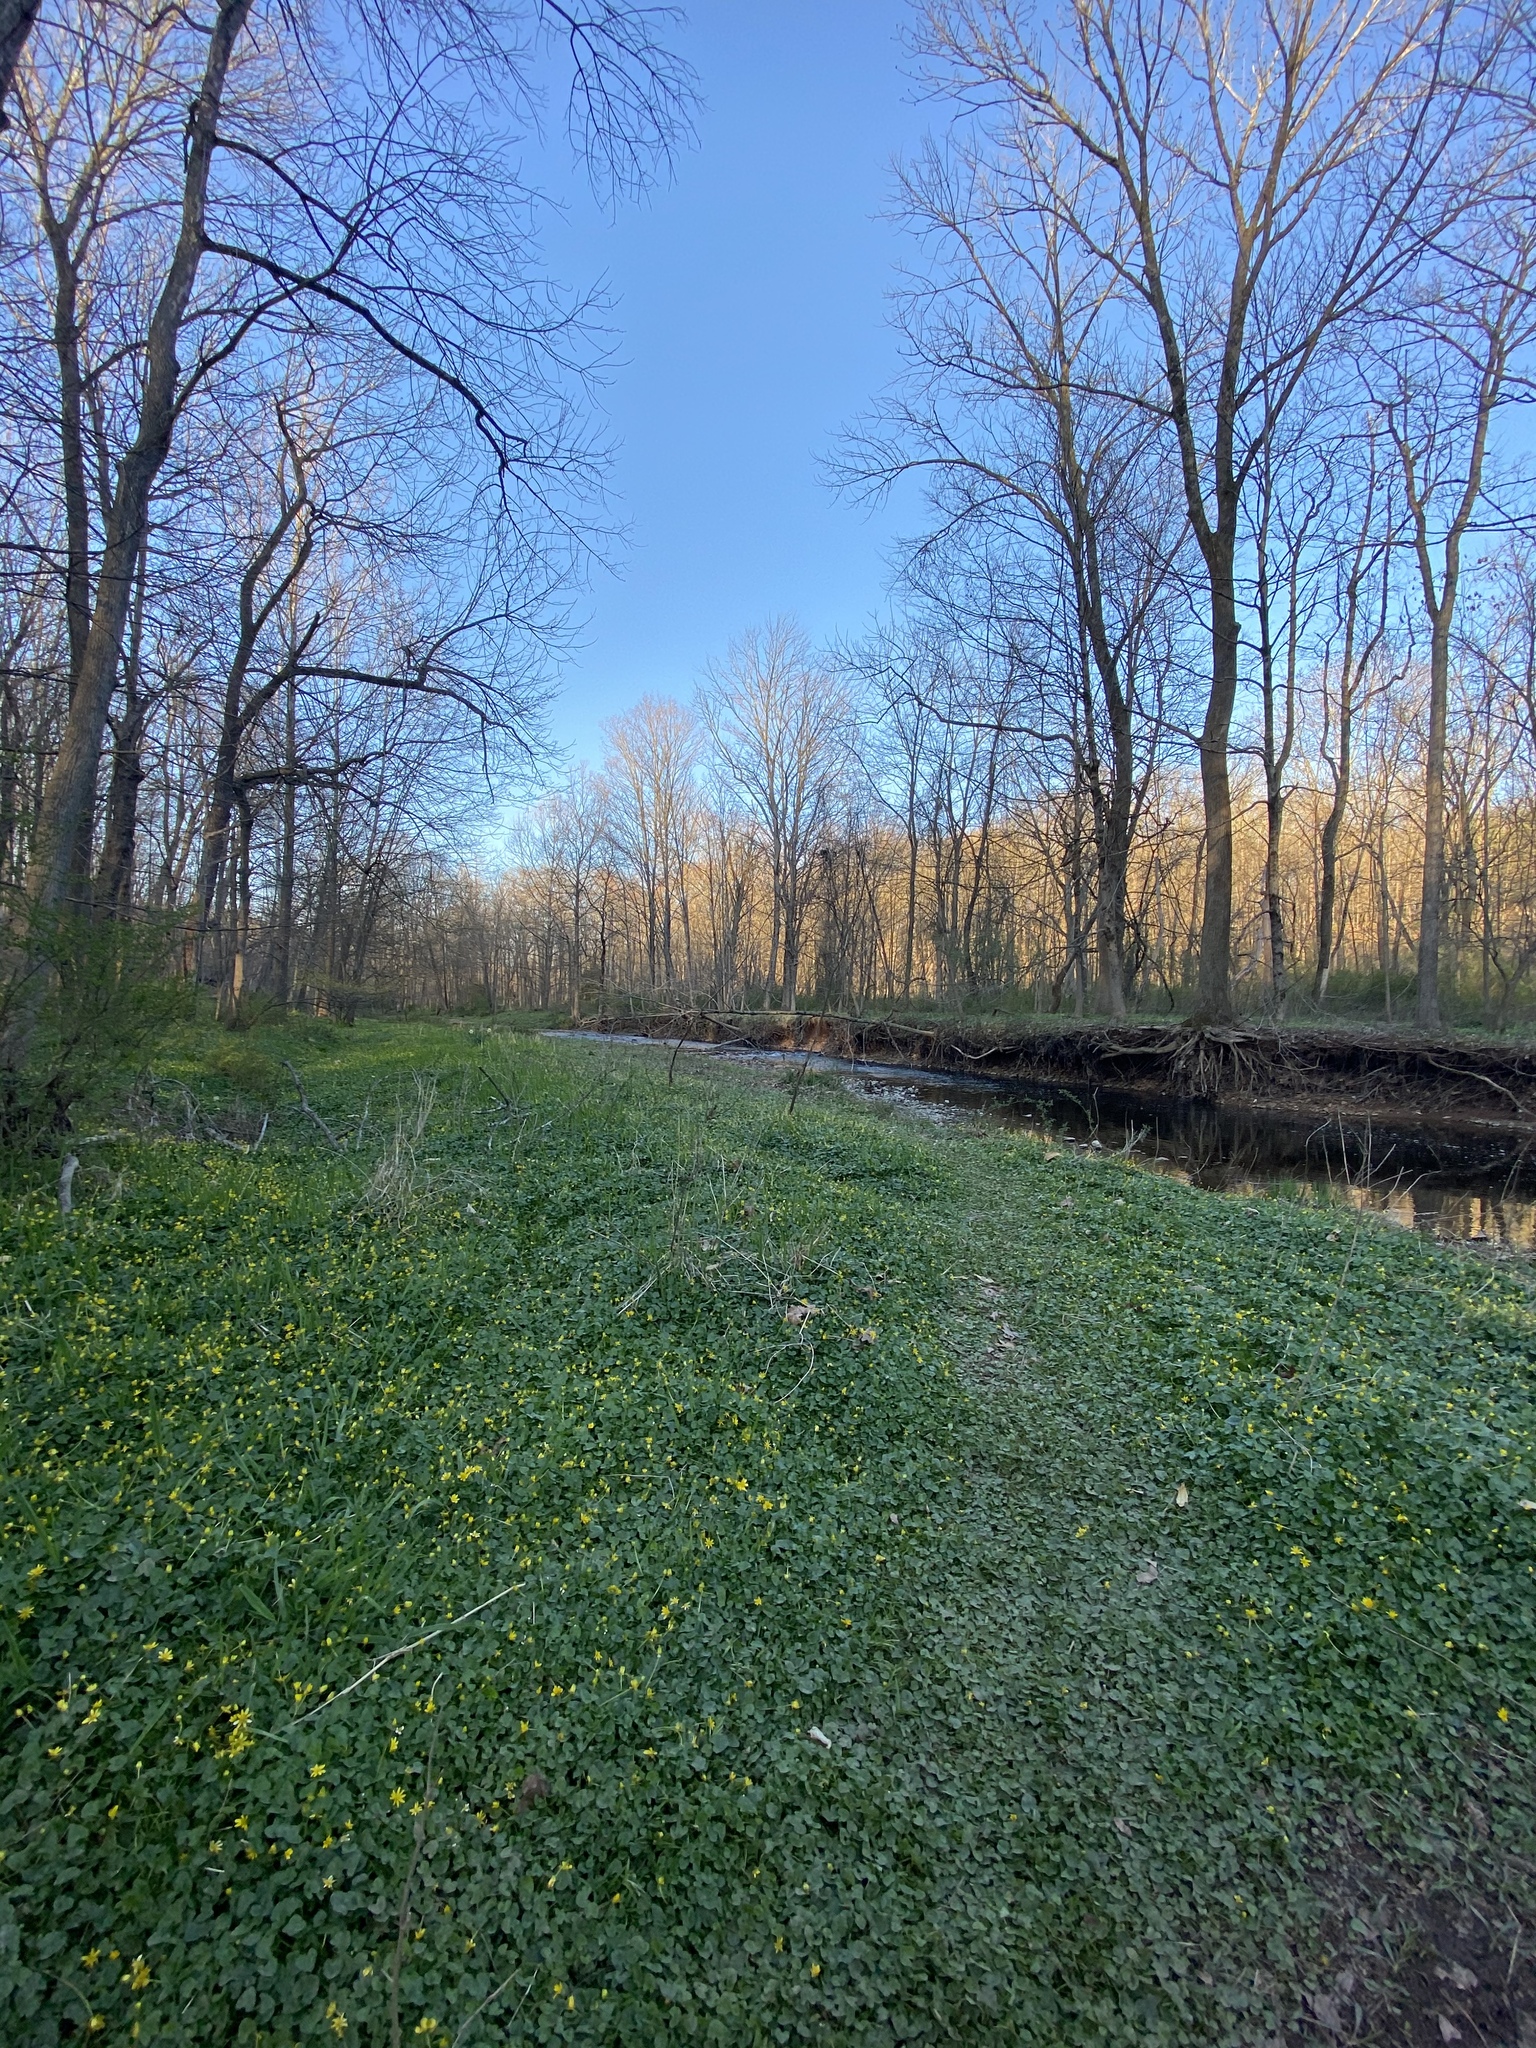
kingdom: Plantae
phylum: Tracheophyta
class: Magnoliopsida
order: Ranunculales
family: Ranunculaceae
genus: Ficaria
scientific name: Ficaria verna
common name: Lesser celandine
